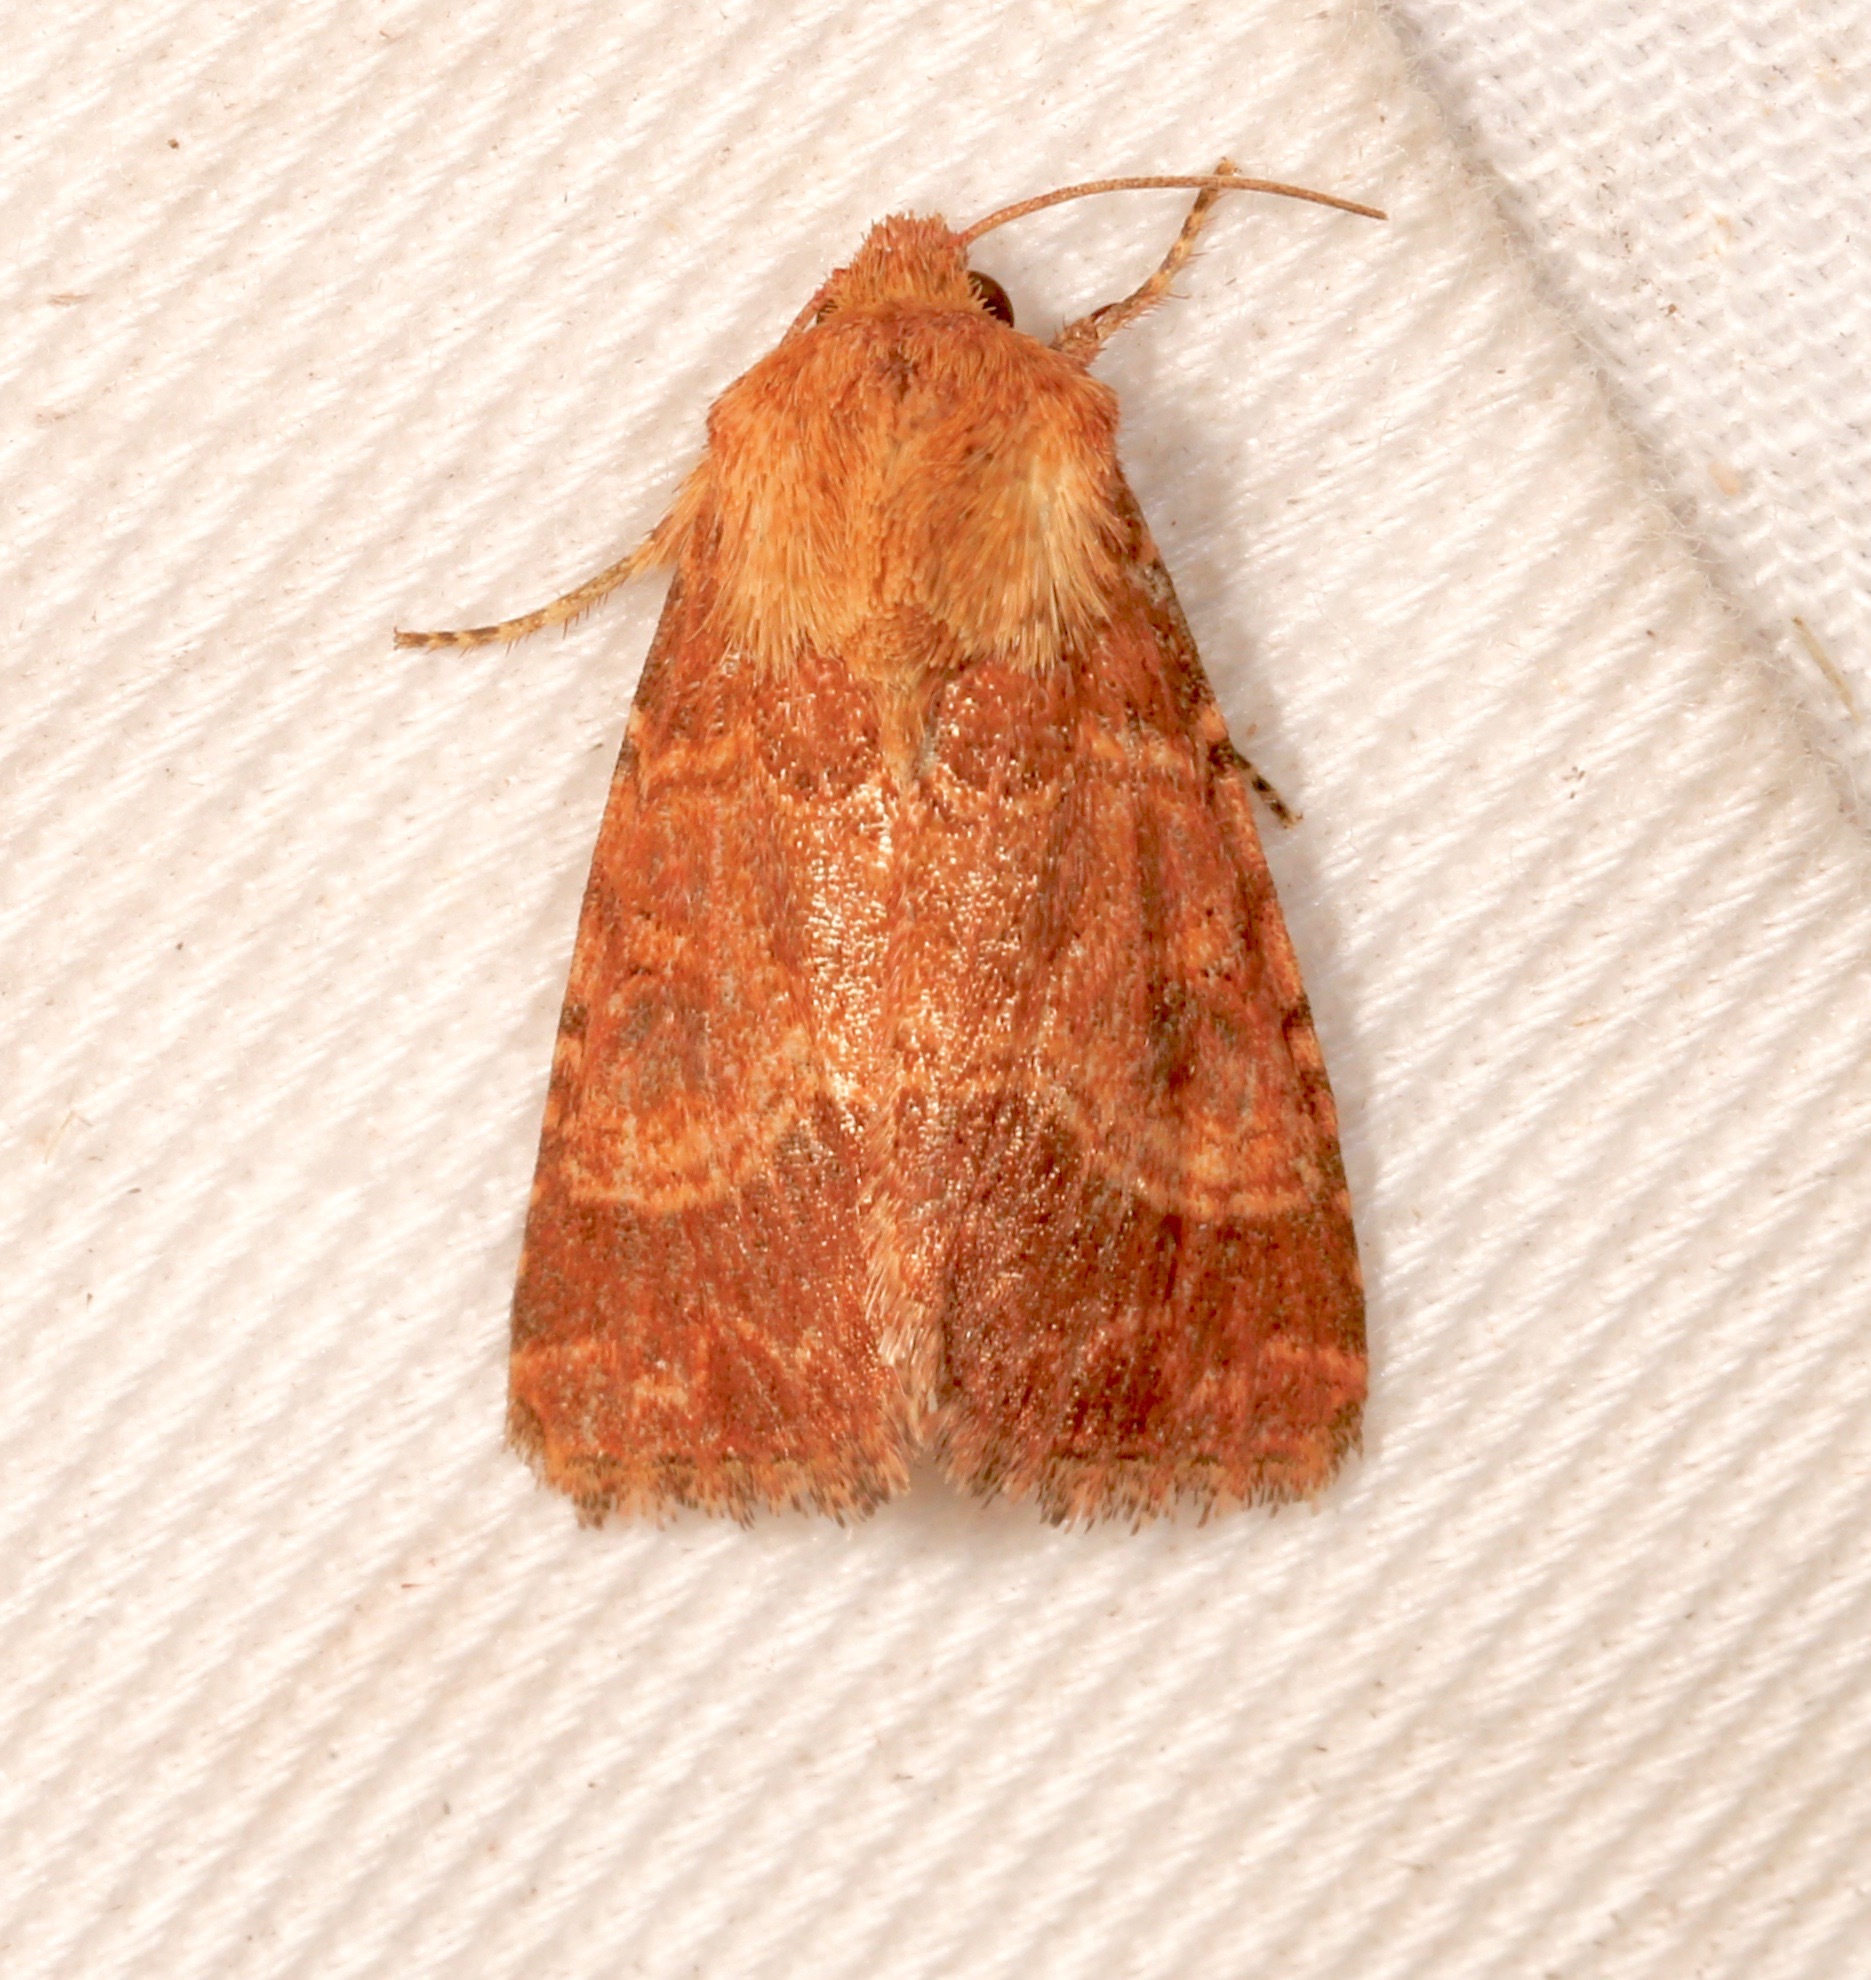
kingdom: Animalia
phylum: Arthropoda
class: Insecta
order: Lepidoptera
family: Noctuidae
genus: Schinia
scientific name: Schinia mexicana
